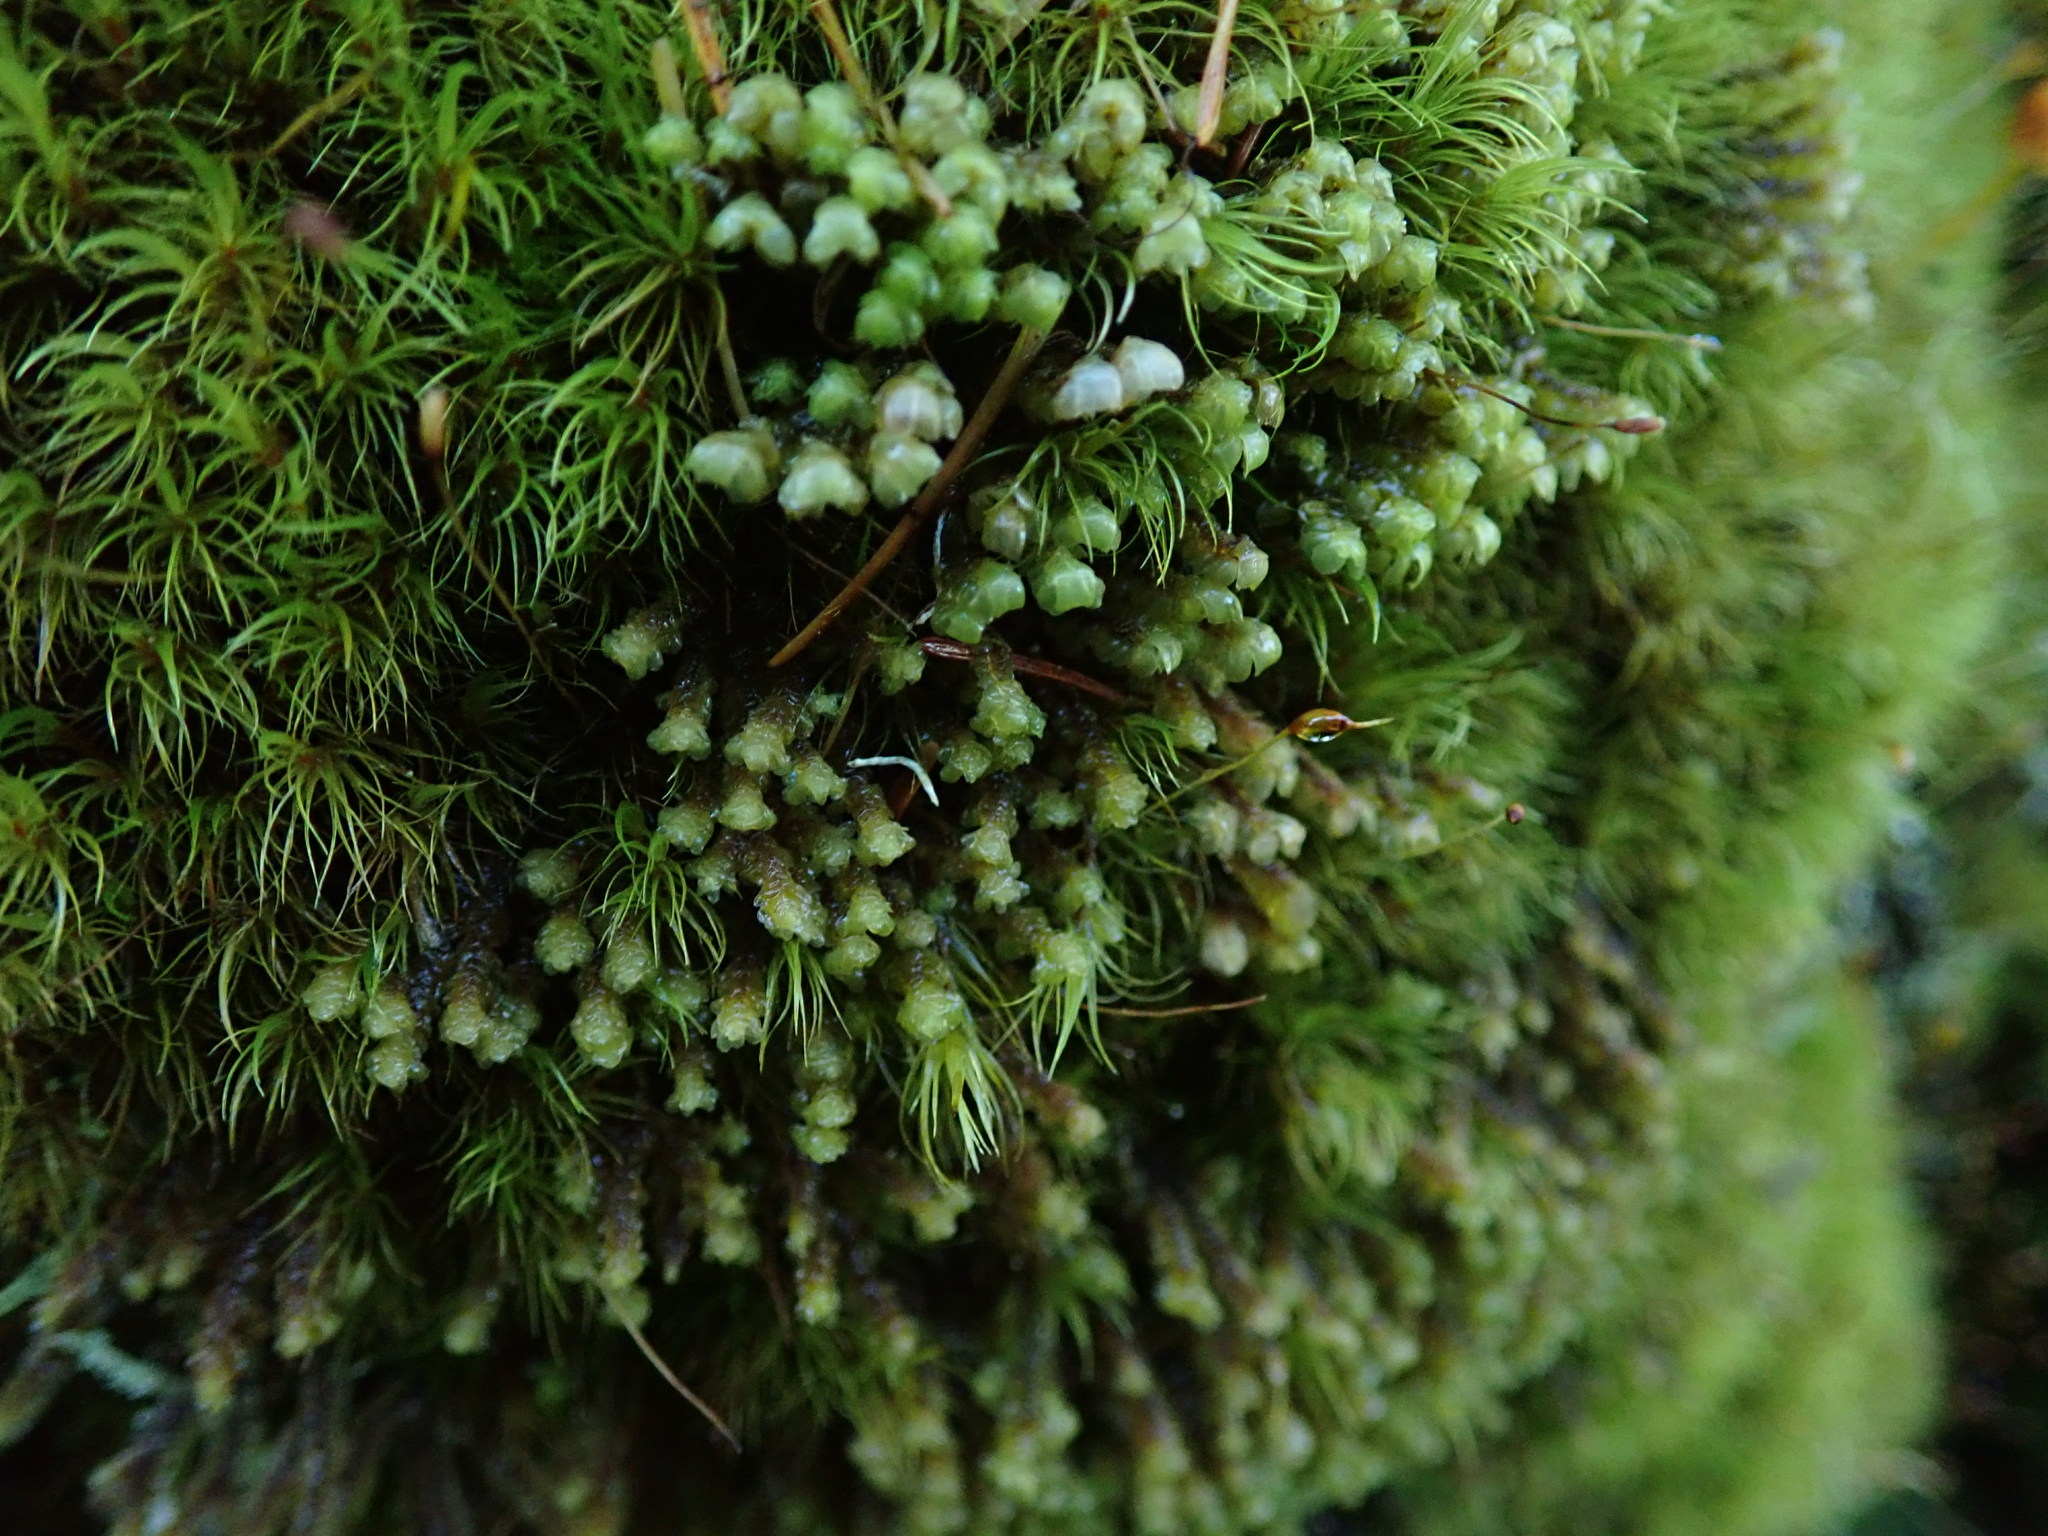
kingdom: Plantae
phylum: Marchantiophyta
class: Jungermanniopsida
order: Jungermanniales
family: Scapaniaceae
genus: Scapania
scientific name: Scapania bolanderi
